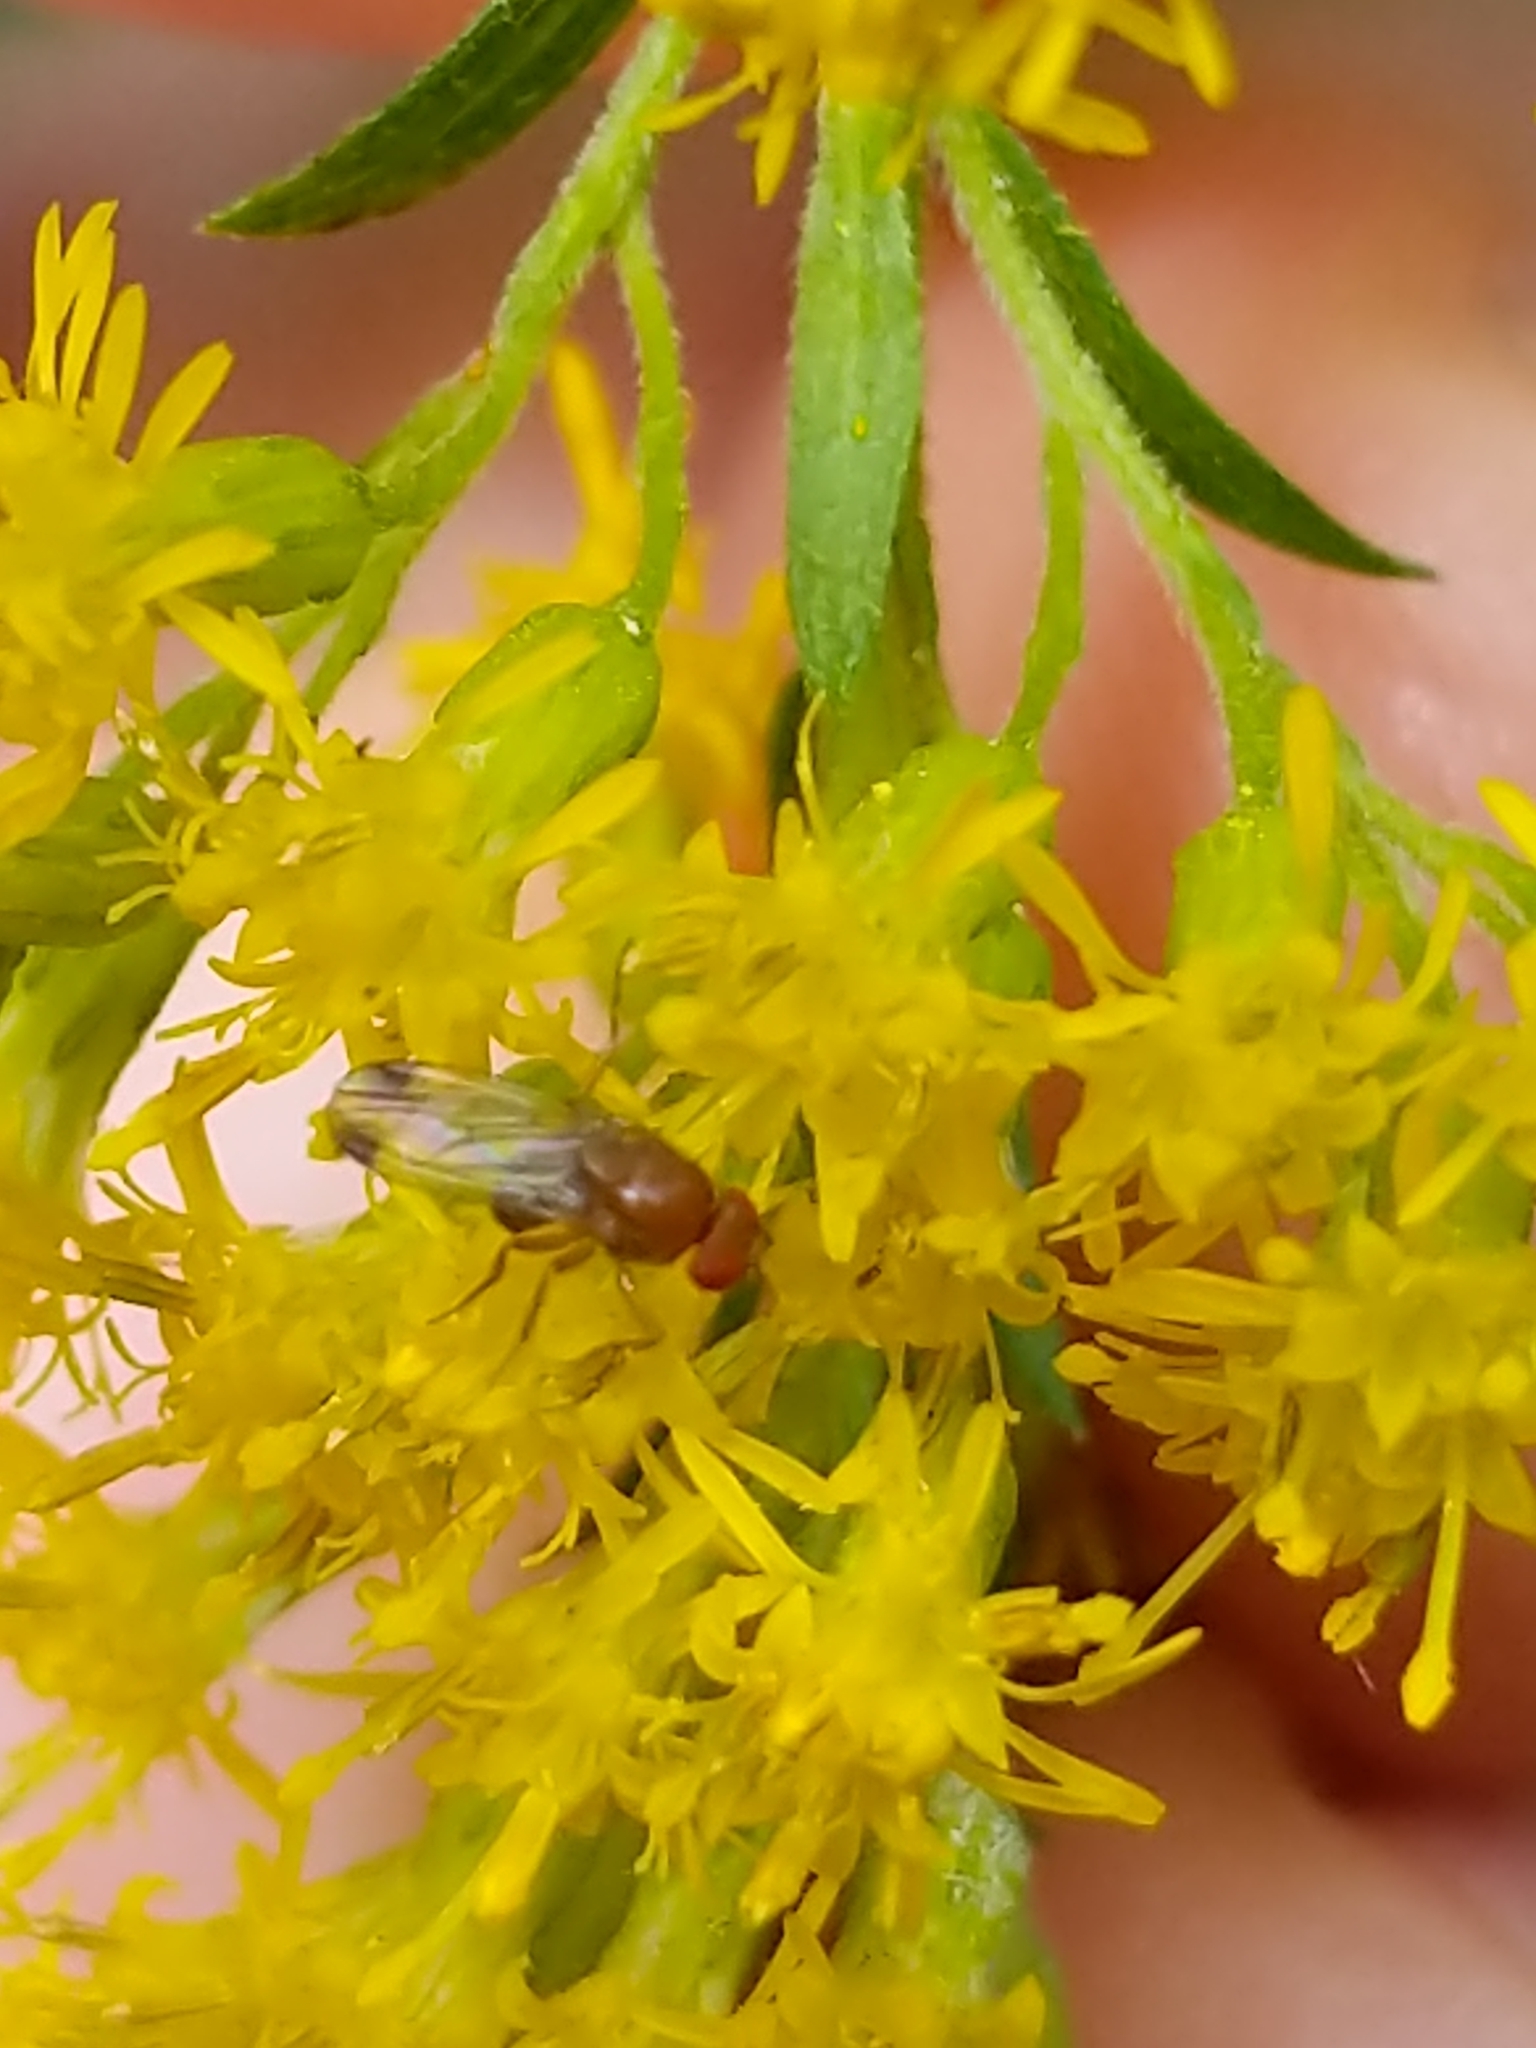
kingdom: Animalia
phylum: Arthropoda
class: Insecta
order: Diptera
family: Drosophilidae
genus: Drosophila
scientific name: Drosophila suzukii
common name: Spotted-wing drosophila
